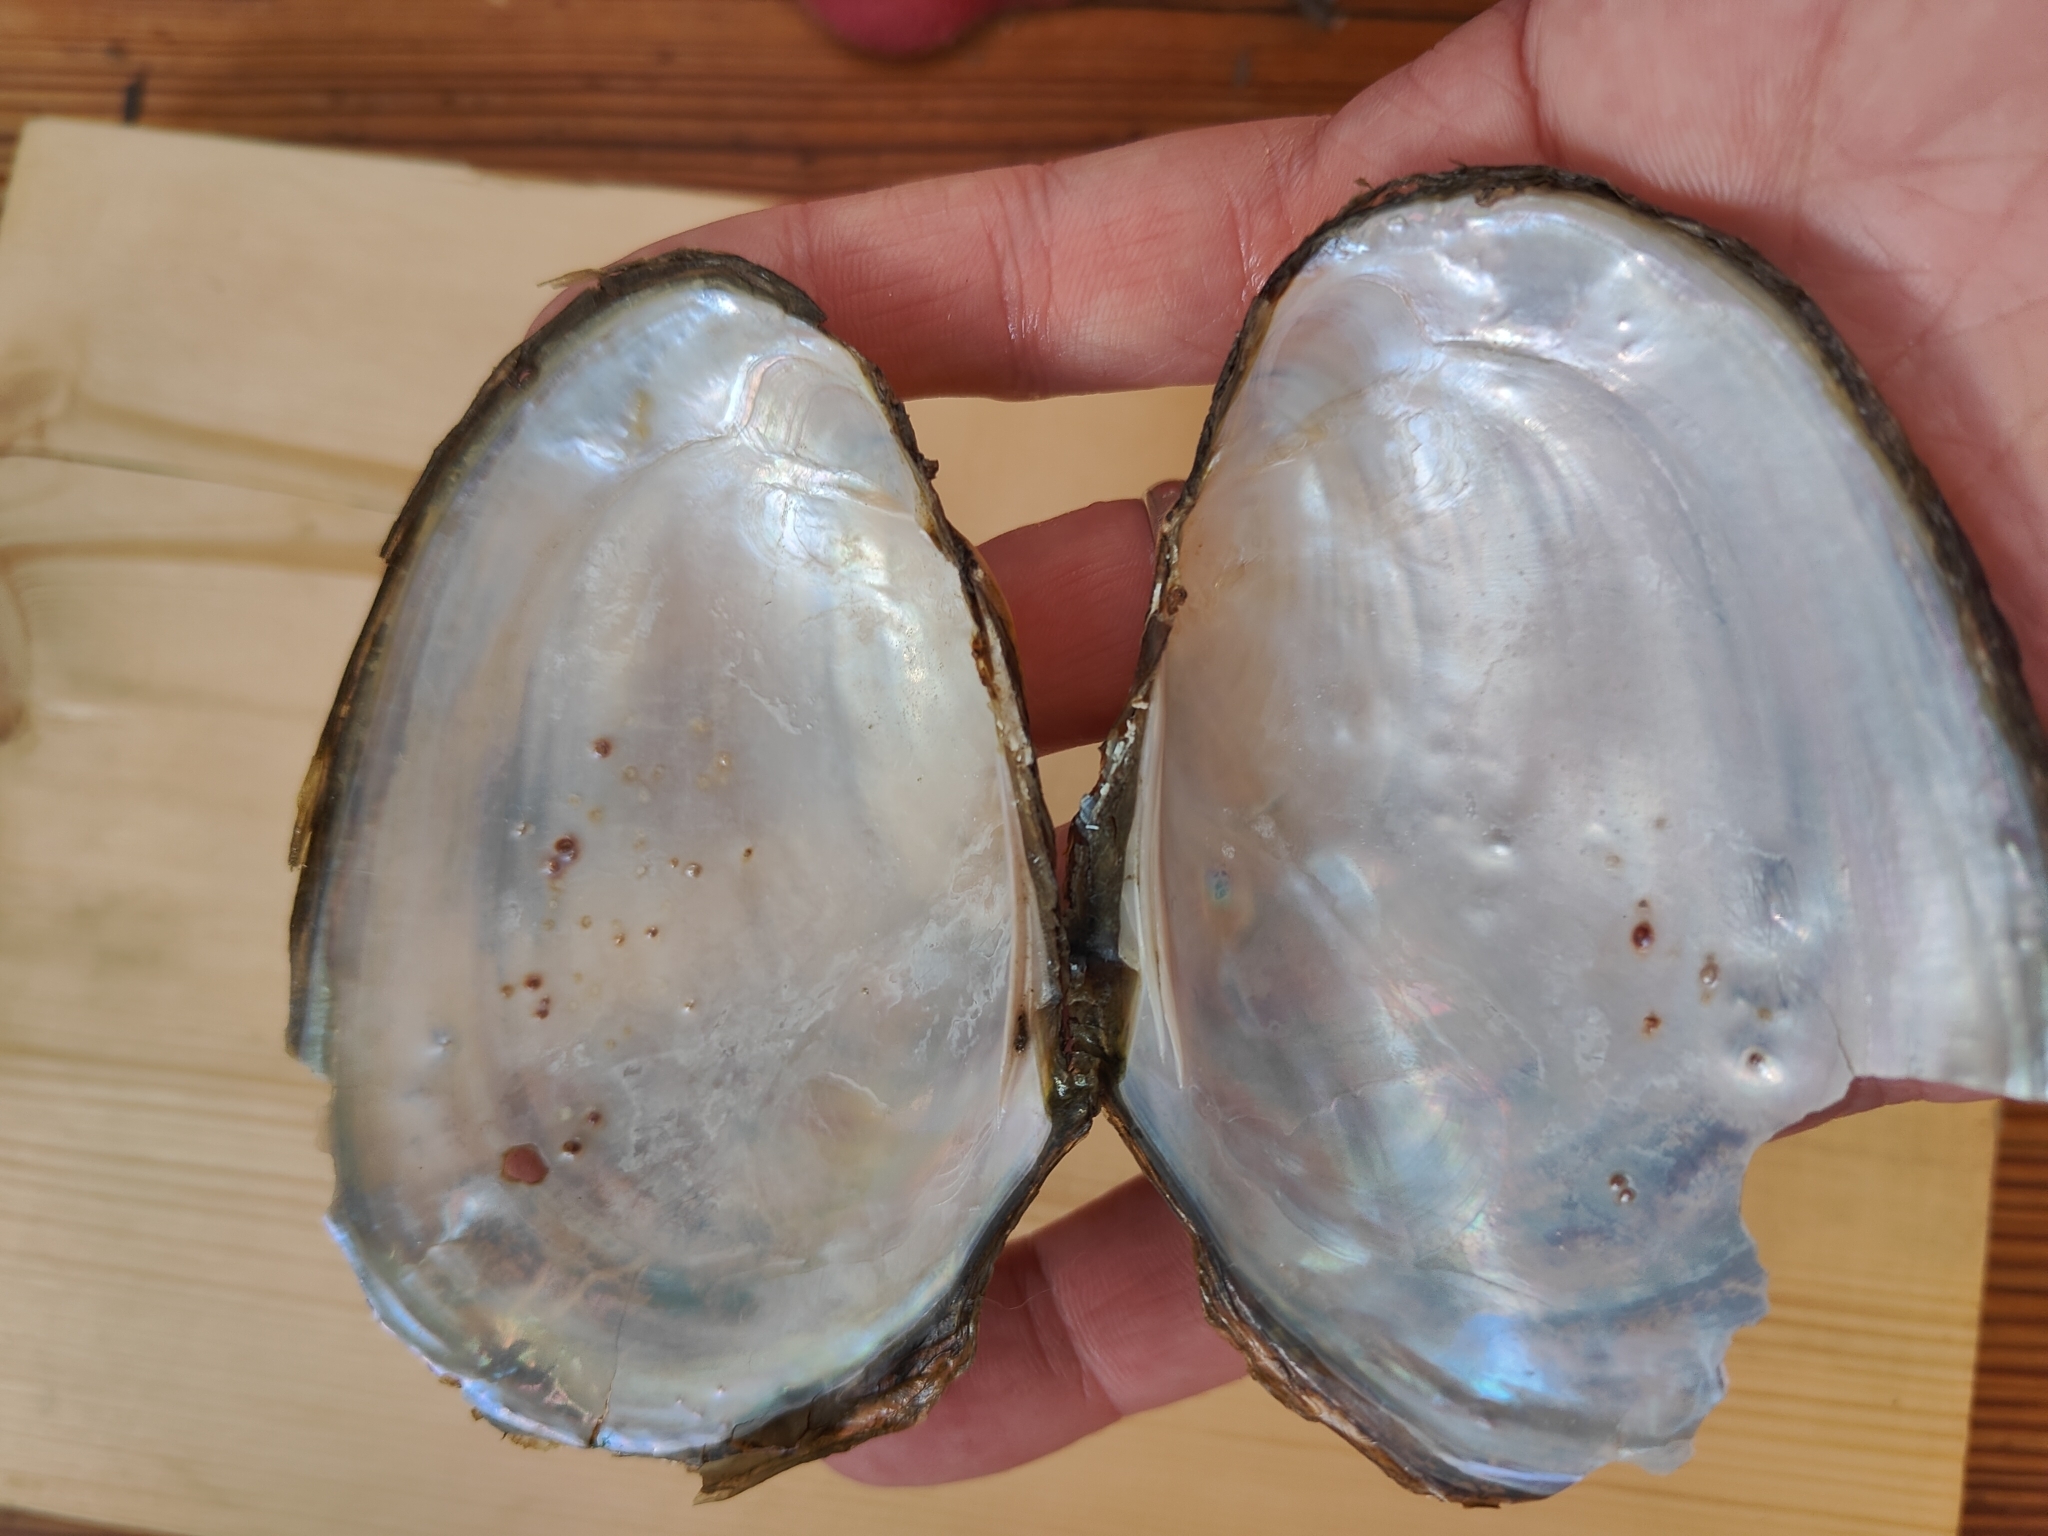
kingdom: Animalia
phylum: Mollusca
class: Bivalvia
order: Unionida
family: Unionidae
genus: Potamilus
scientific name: Potamilus fragilis
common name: Fragile papershell
